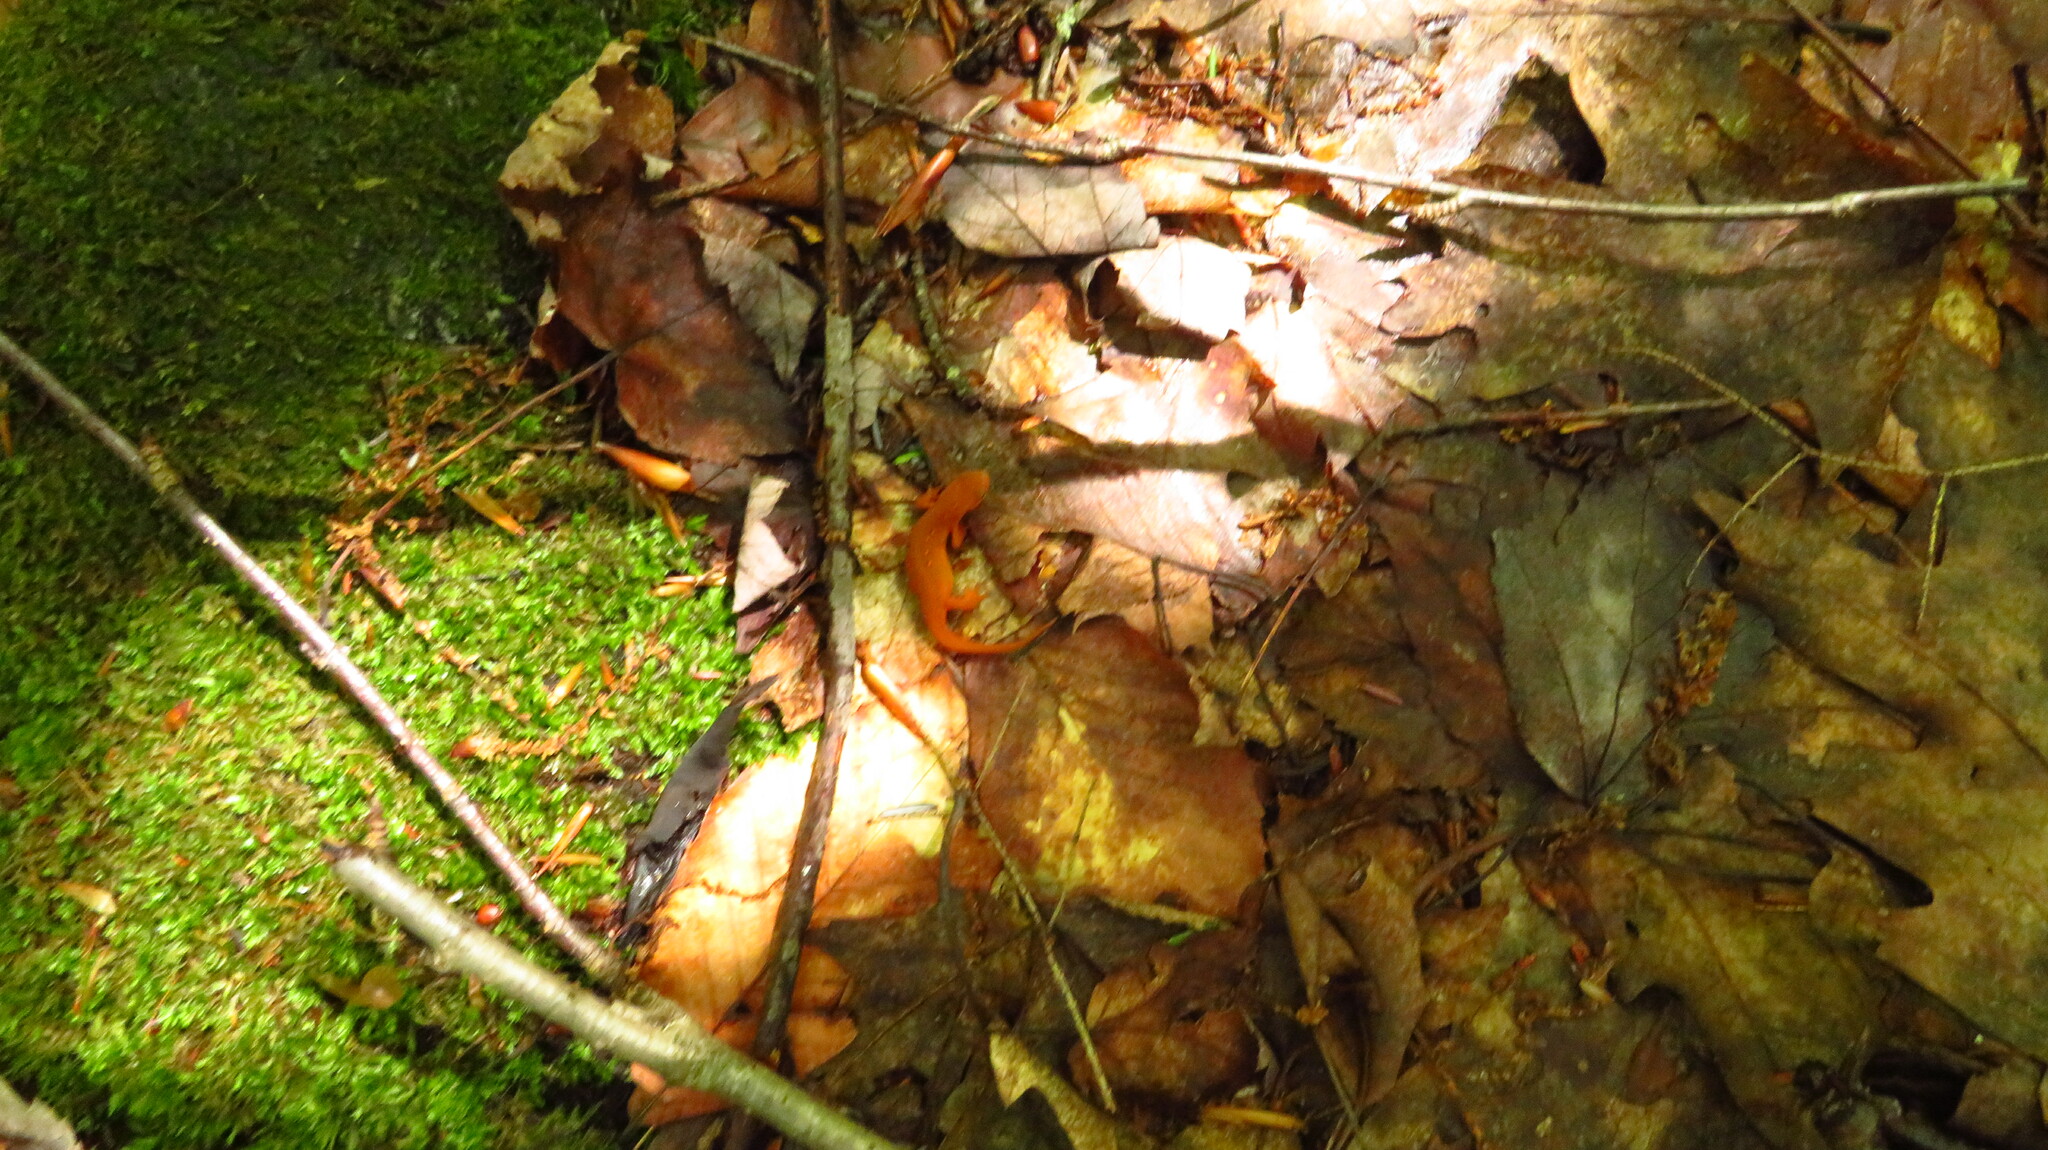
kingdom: Animalia
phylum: Chordata
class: Amphibia
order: Caudata
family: Salamandridae
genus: Notophthalmus
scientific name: Notophthalmus viridescens
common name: Eastern newt
